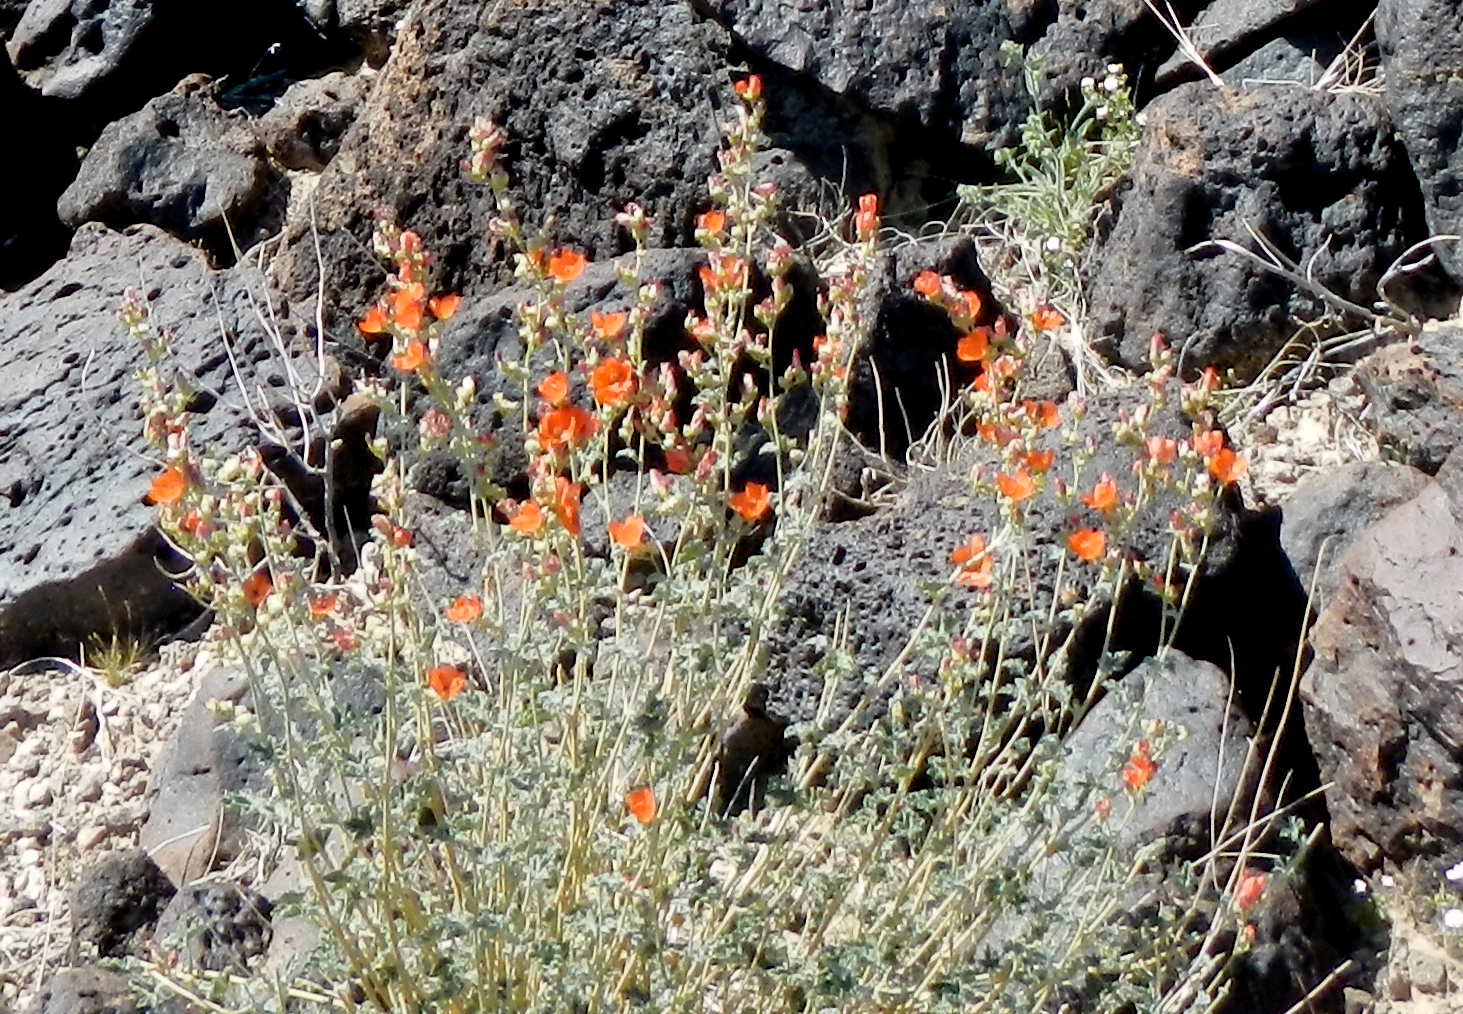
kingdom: Plantae
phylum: Tracheophyta
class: Magnoliopsida
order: Malvales
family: Malvaceae
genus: Sphaeralcea
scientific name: Sphaeralcea ambigua
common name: Apricot globe-mallow
